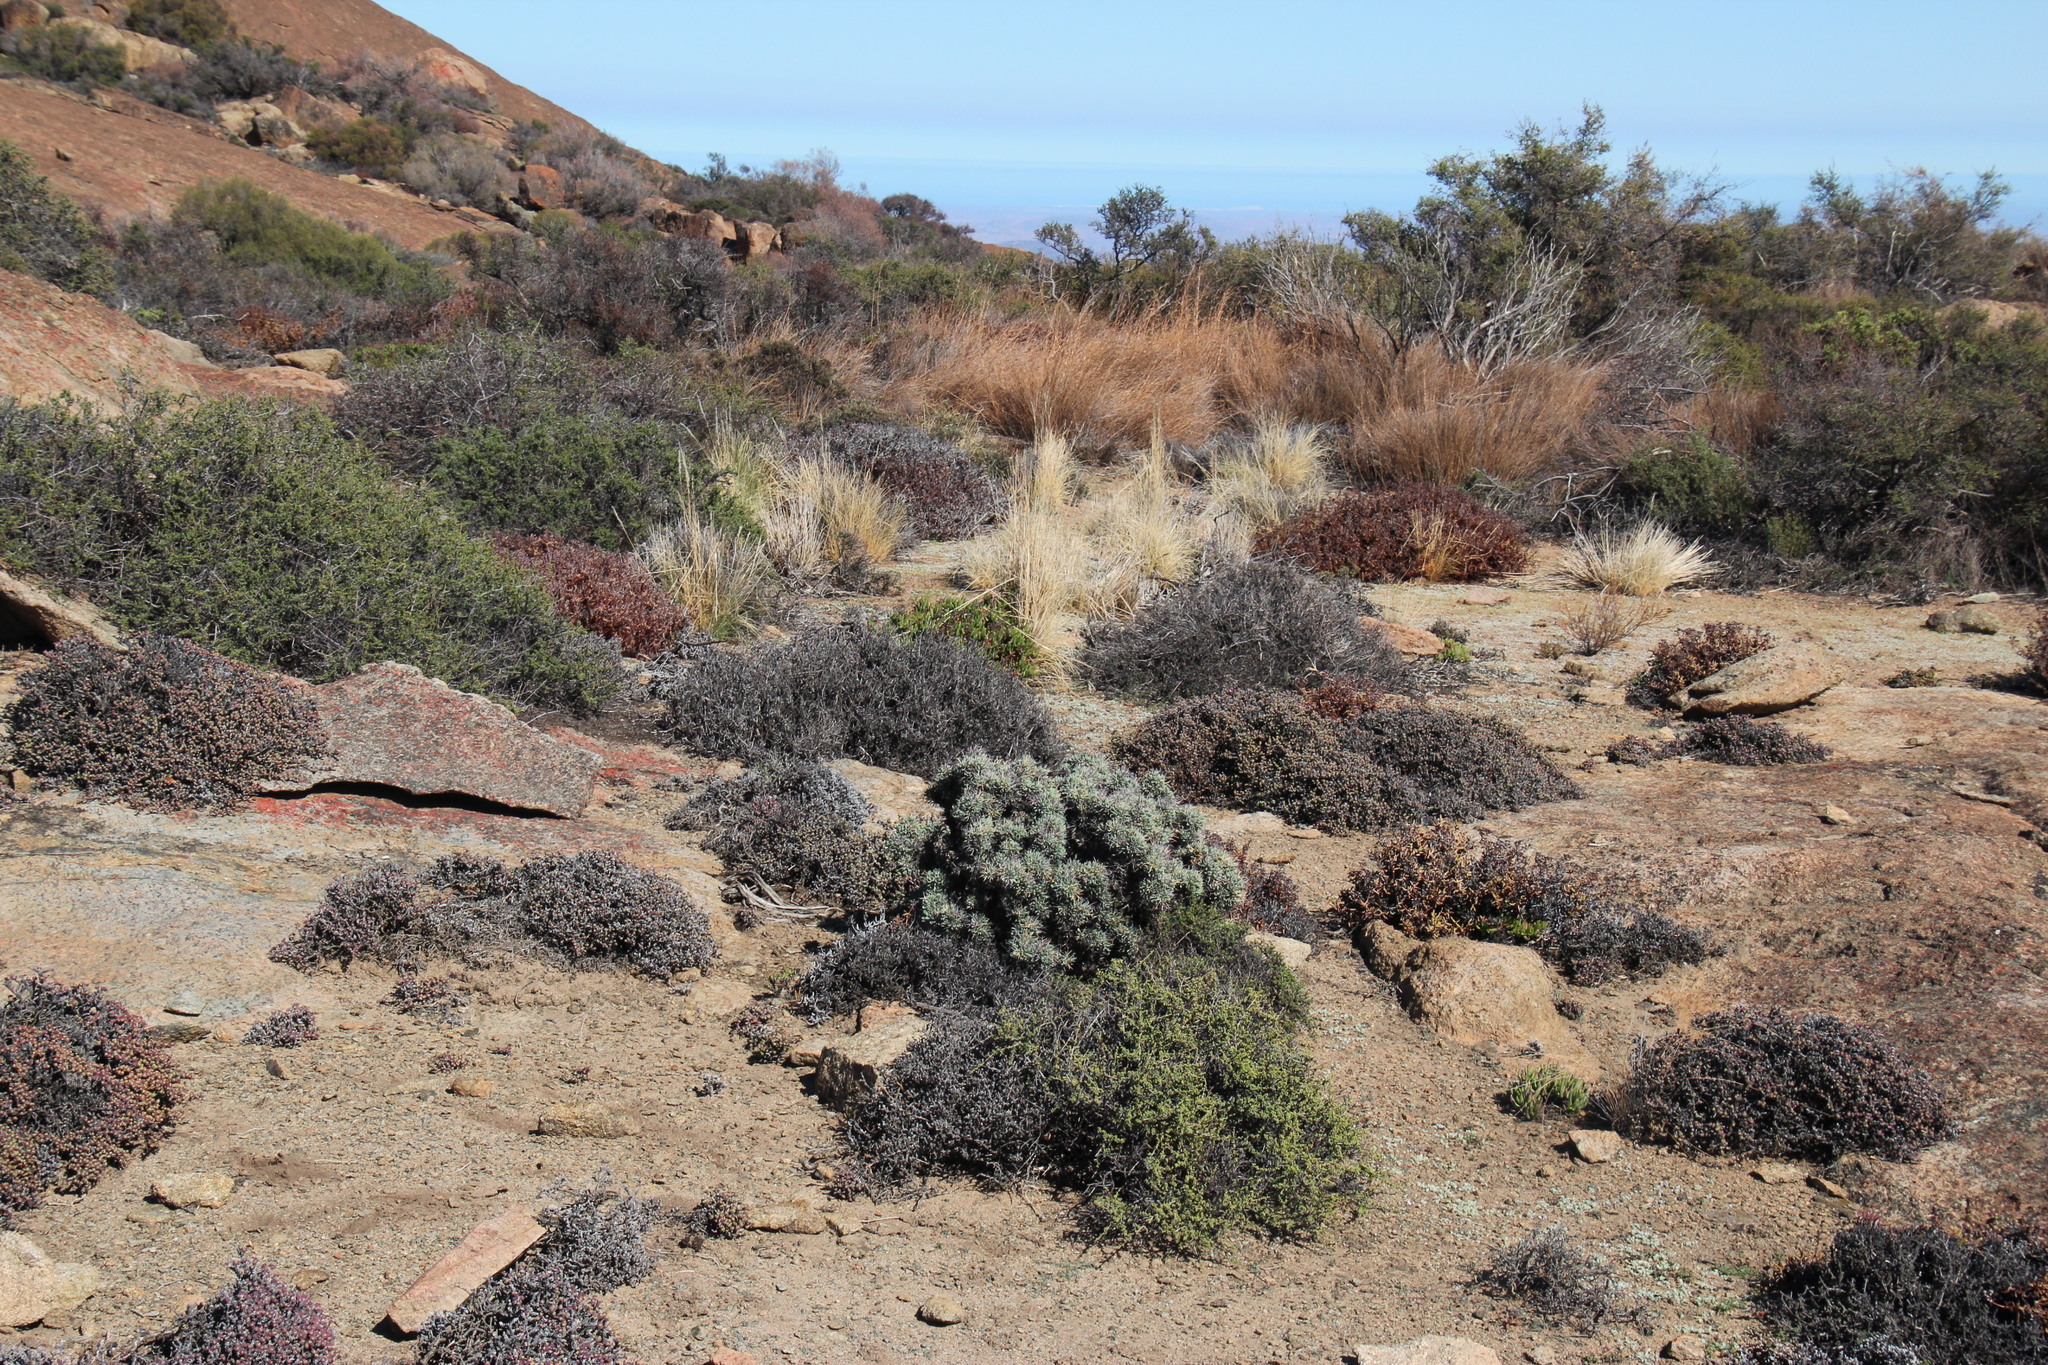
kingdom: Plantae
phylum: Tracheophyta
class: Magnoliopsida
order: Asterales
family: Asteraceae
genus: Othonna
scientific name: Othonna euphorbioides
